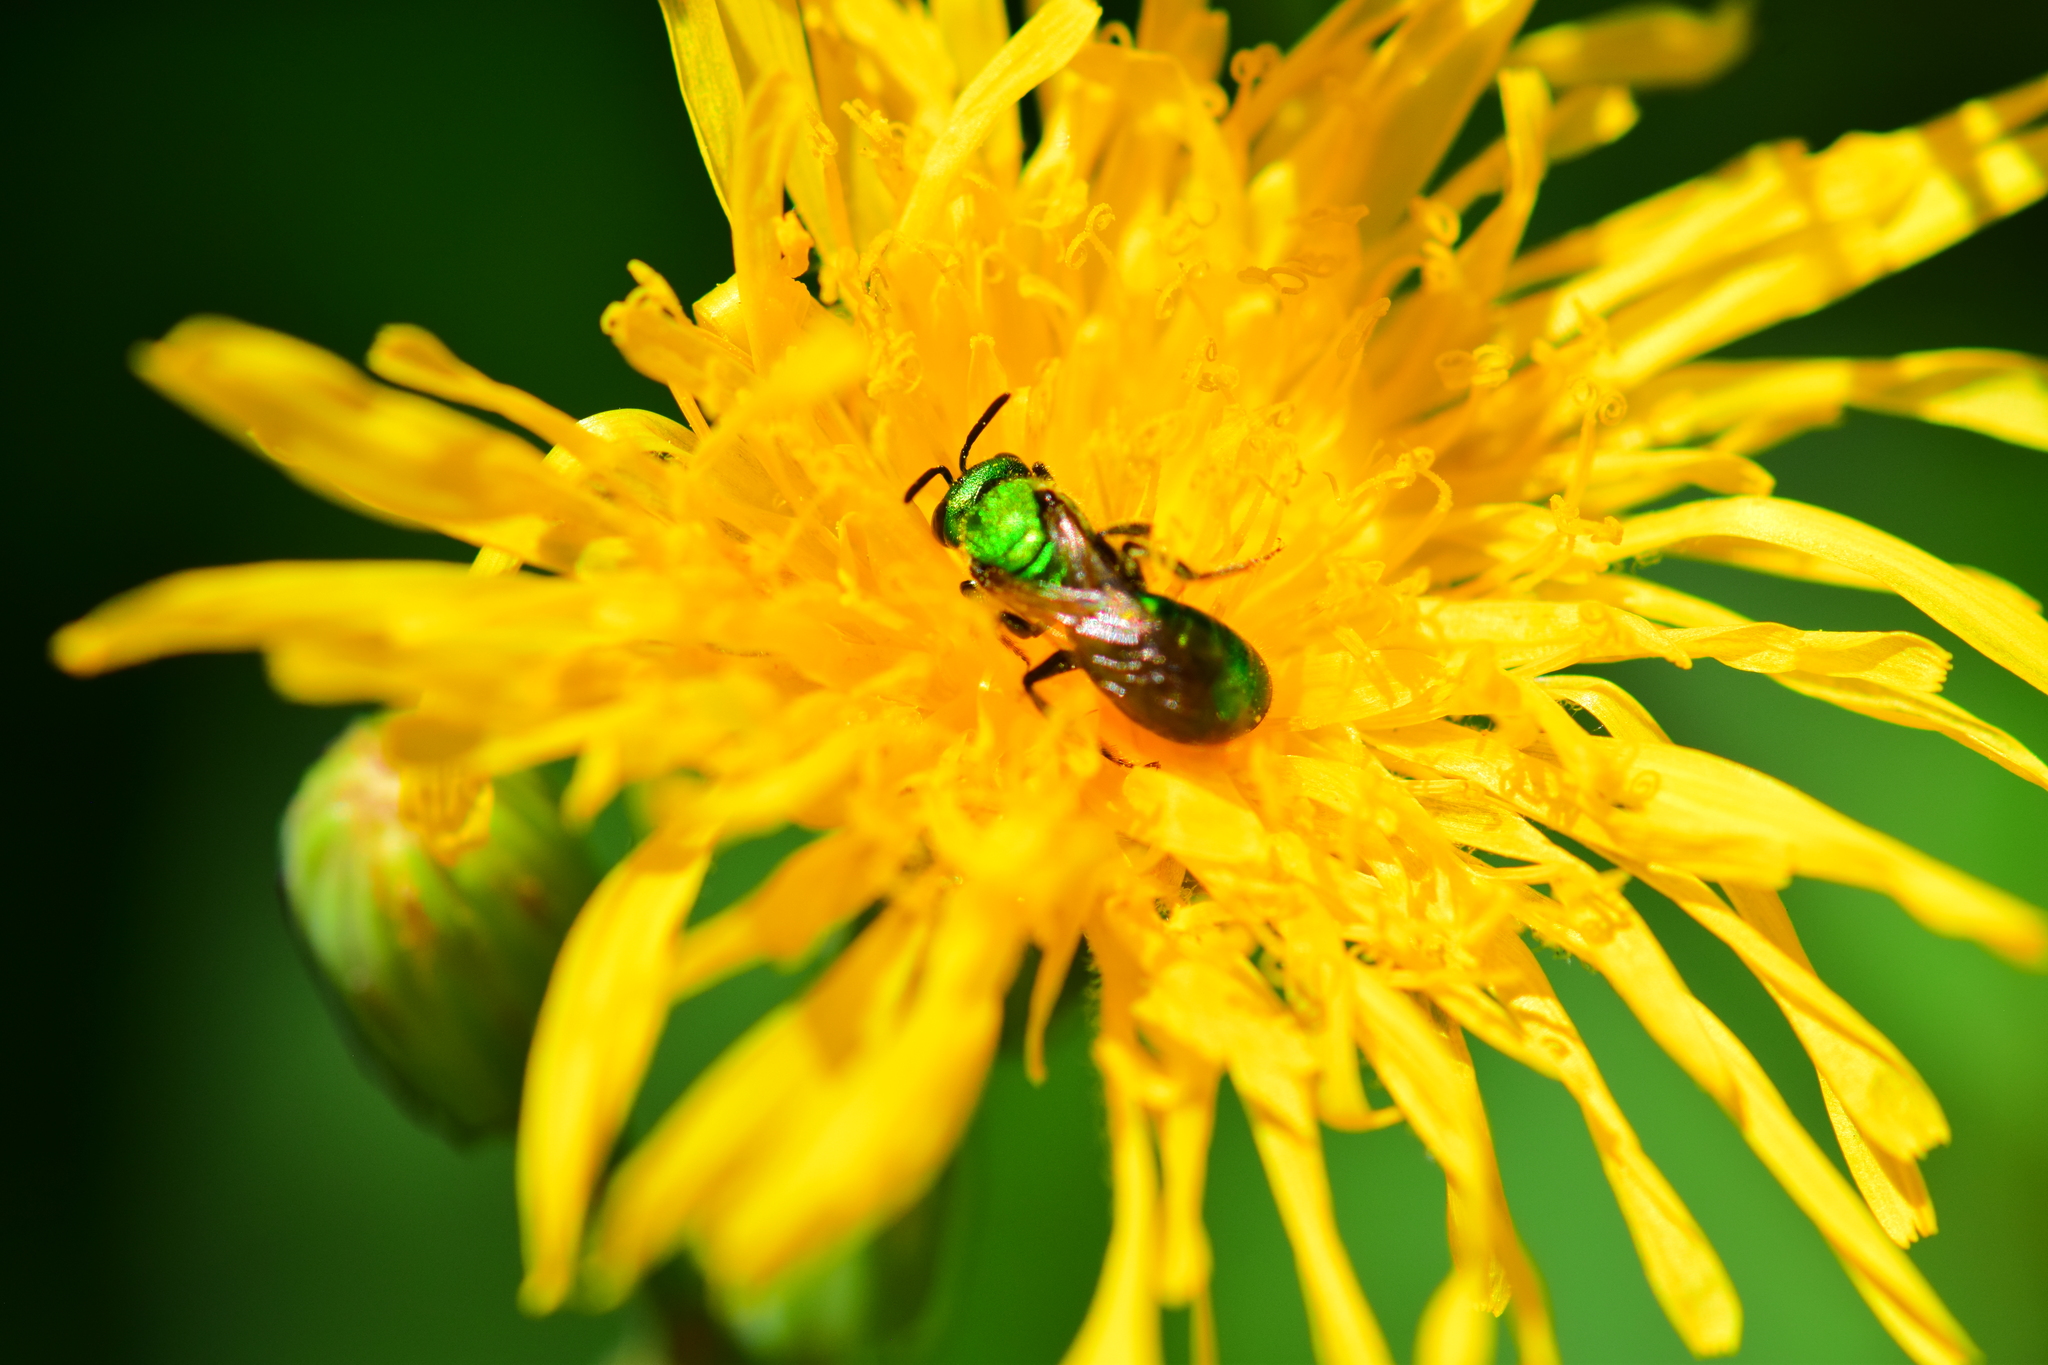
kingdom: Animalia
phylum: Arthropoda
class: Insecta
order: Hymenoptera
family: Halictidae
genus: Augochlora
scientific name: Augochlora pura
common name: Pure green sweat bee
